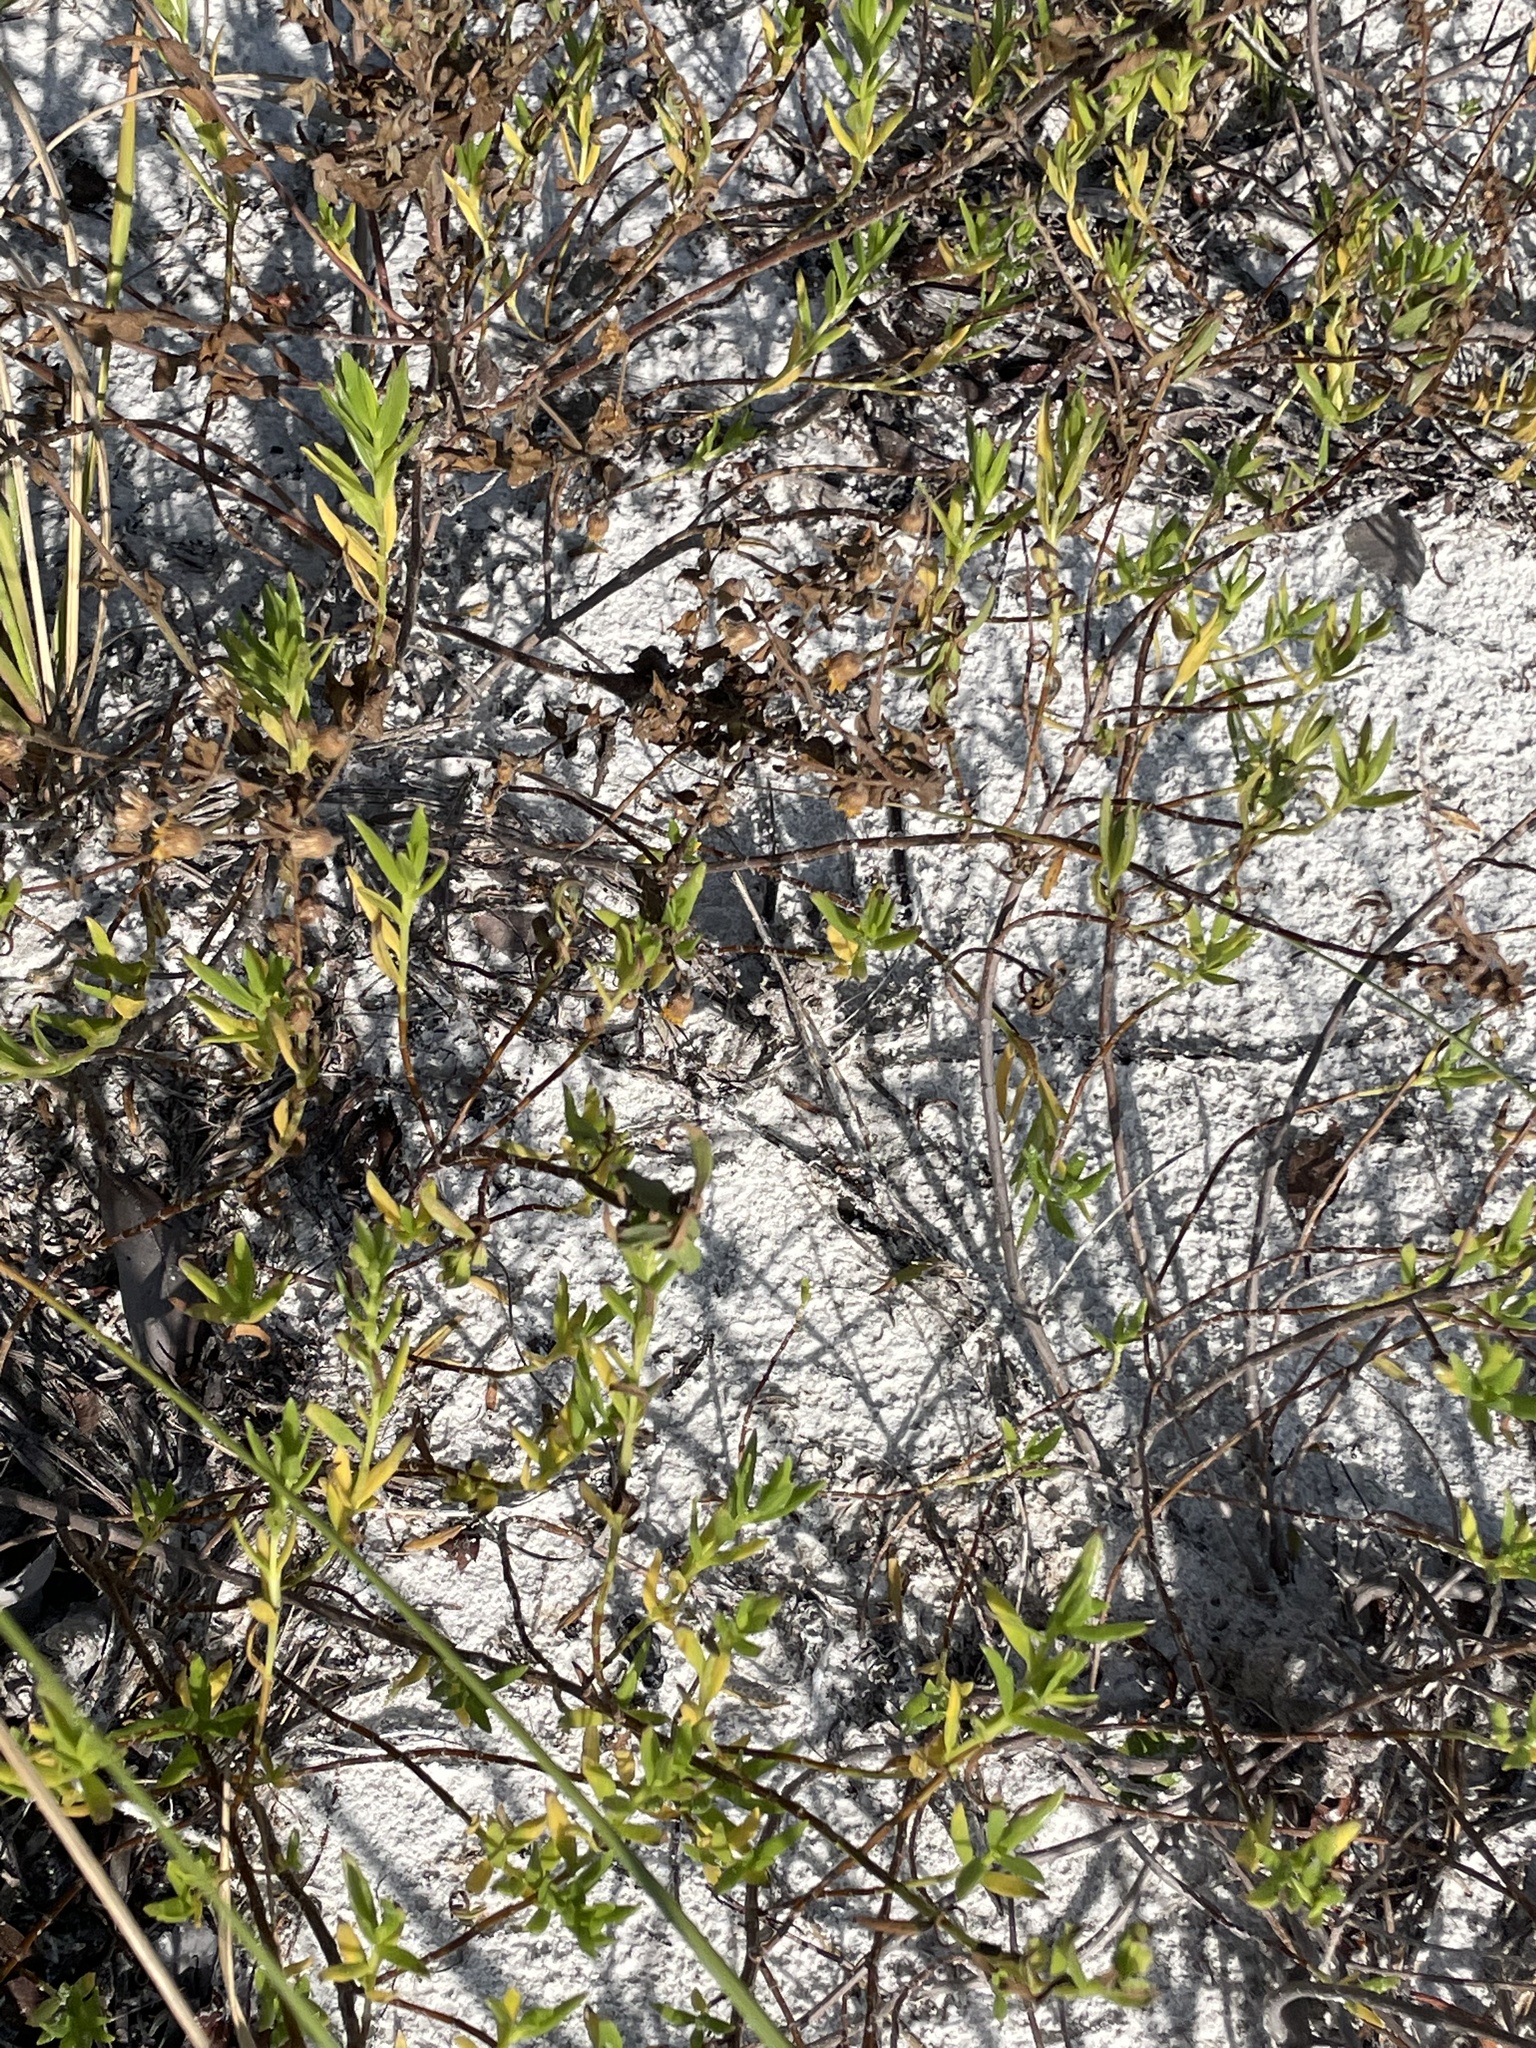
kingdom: Plantae
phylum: Tracheophyta
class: Magnoliopsida
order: Asterales
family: Asteraceae
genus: Iva
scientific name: Iva imbricata
